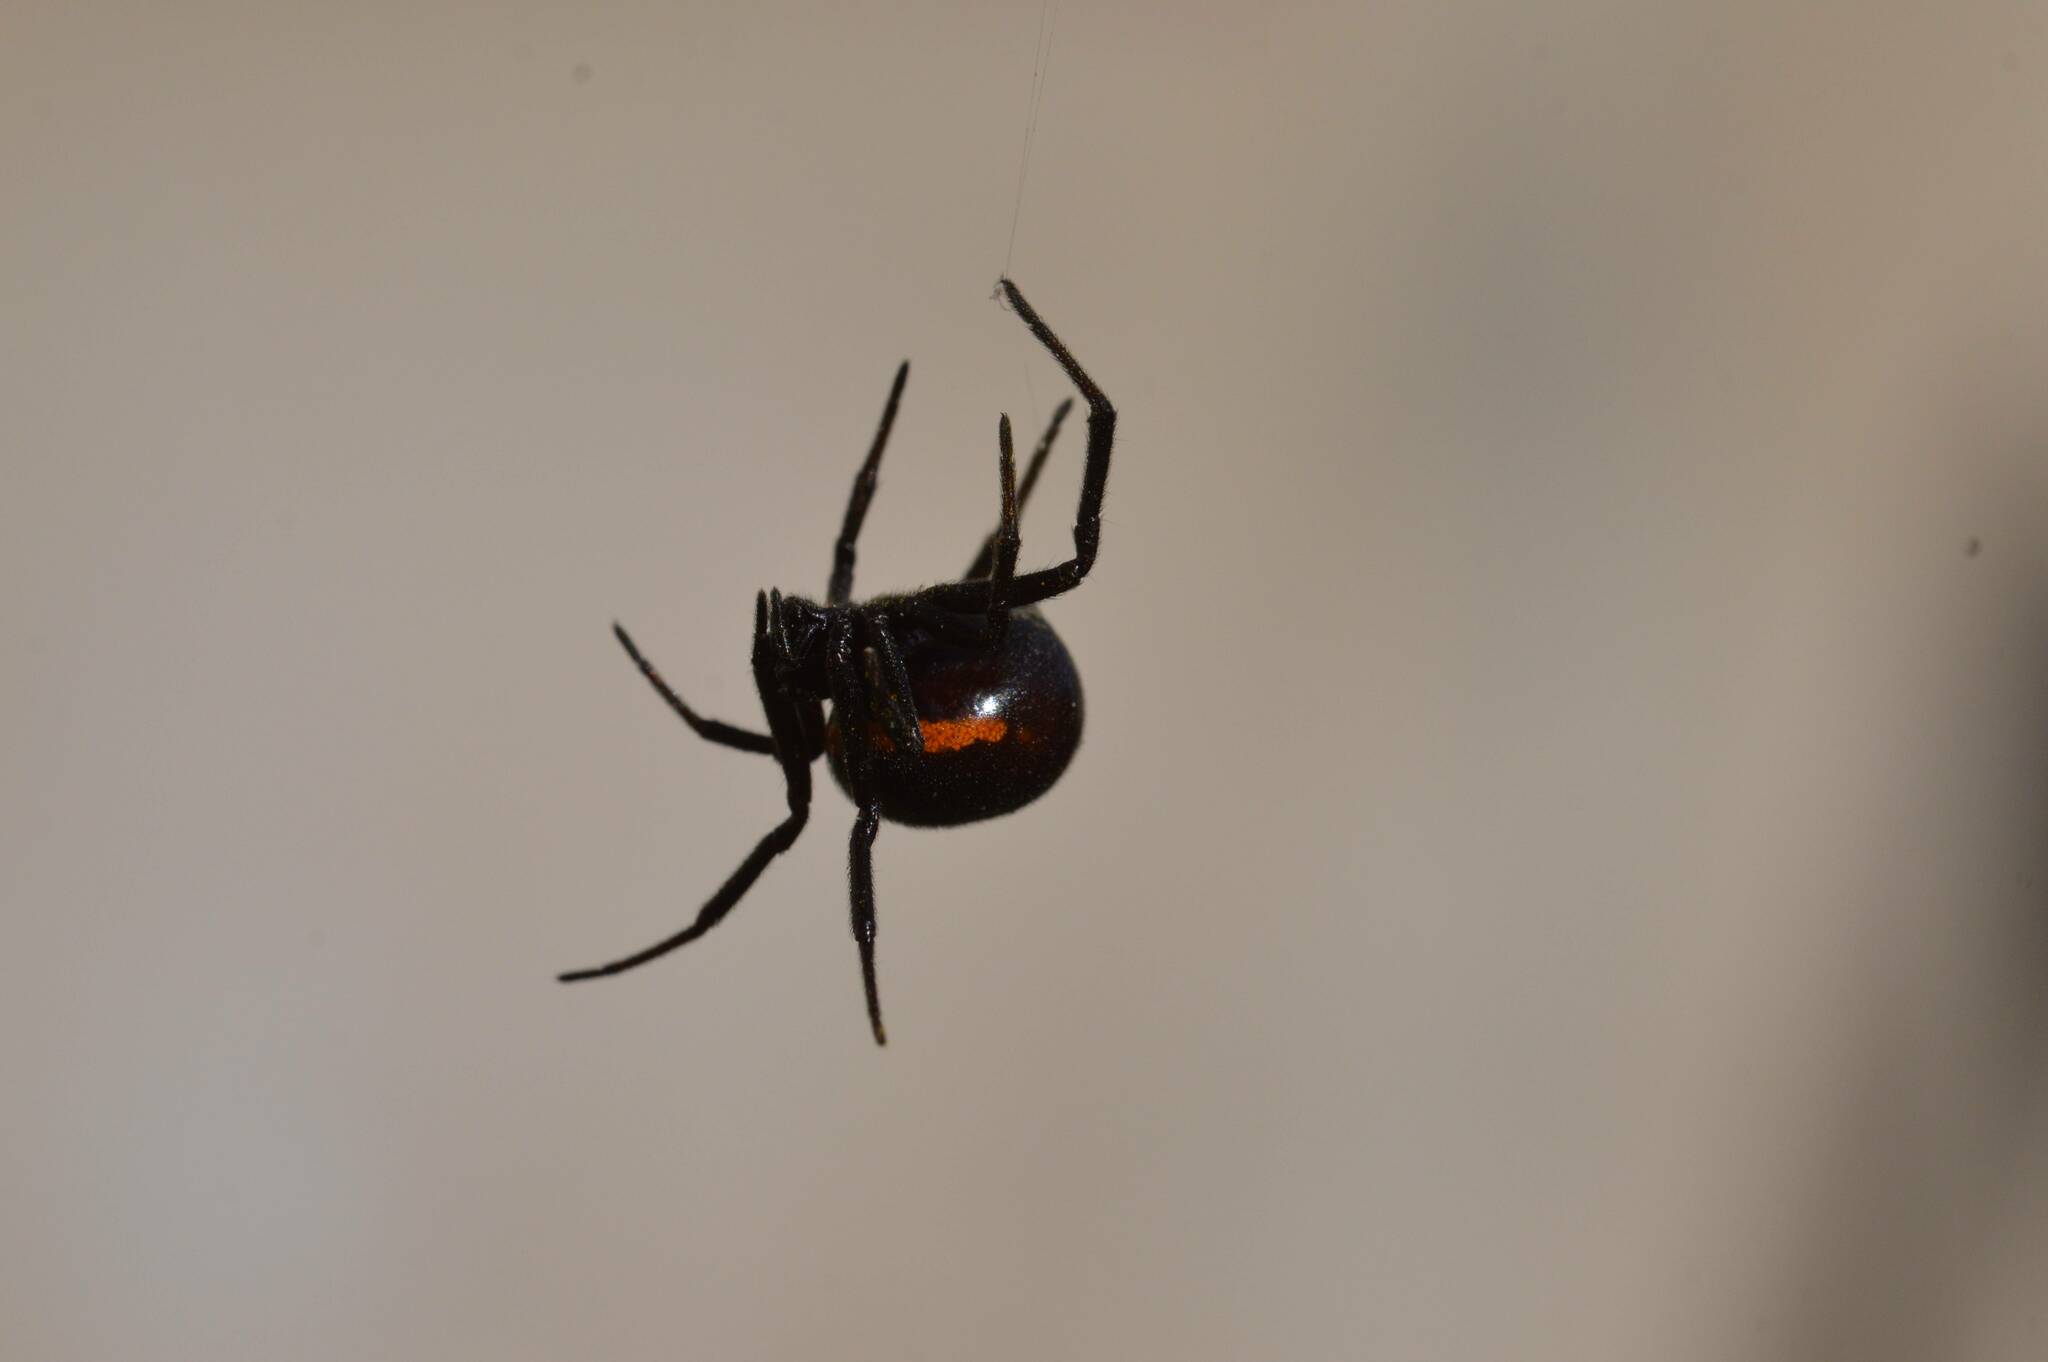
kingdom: Animalia
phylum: Arthropoda
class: Arachnida
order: Araneae
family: Theridiidae
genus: Steatoda
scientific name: Steatoda paykulliana
